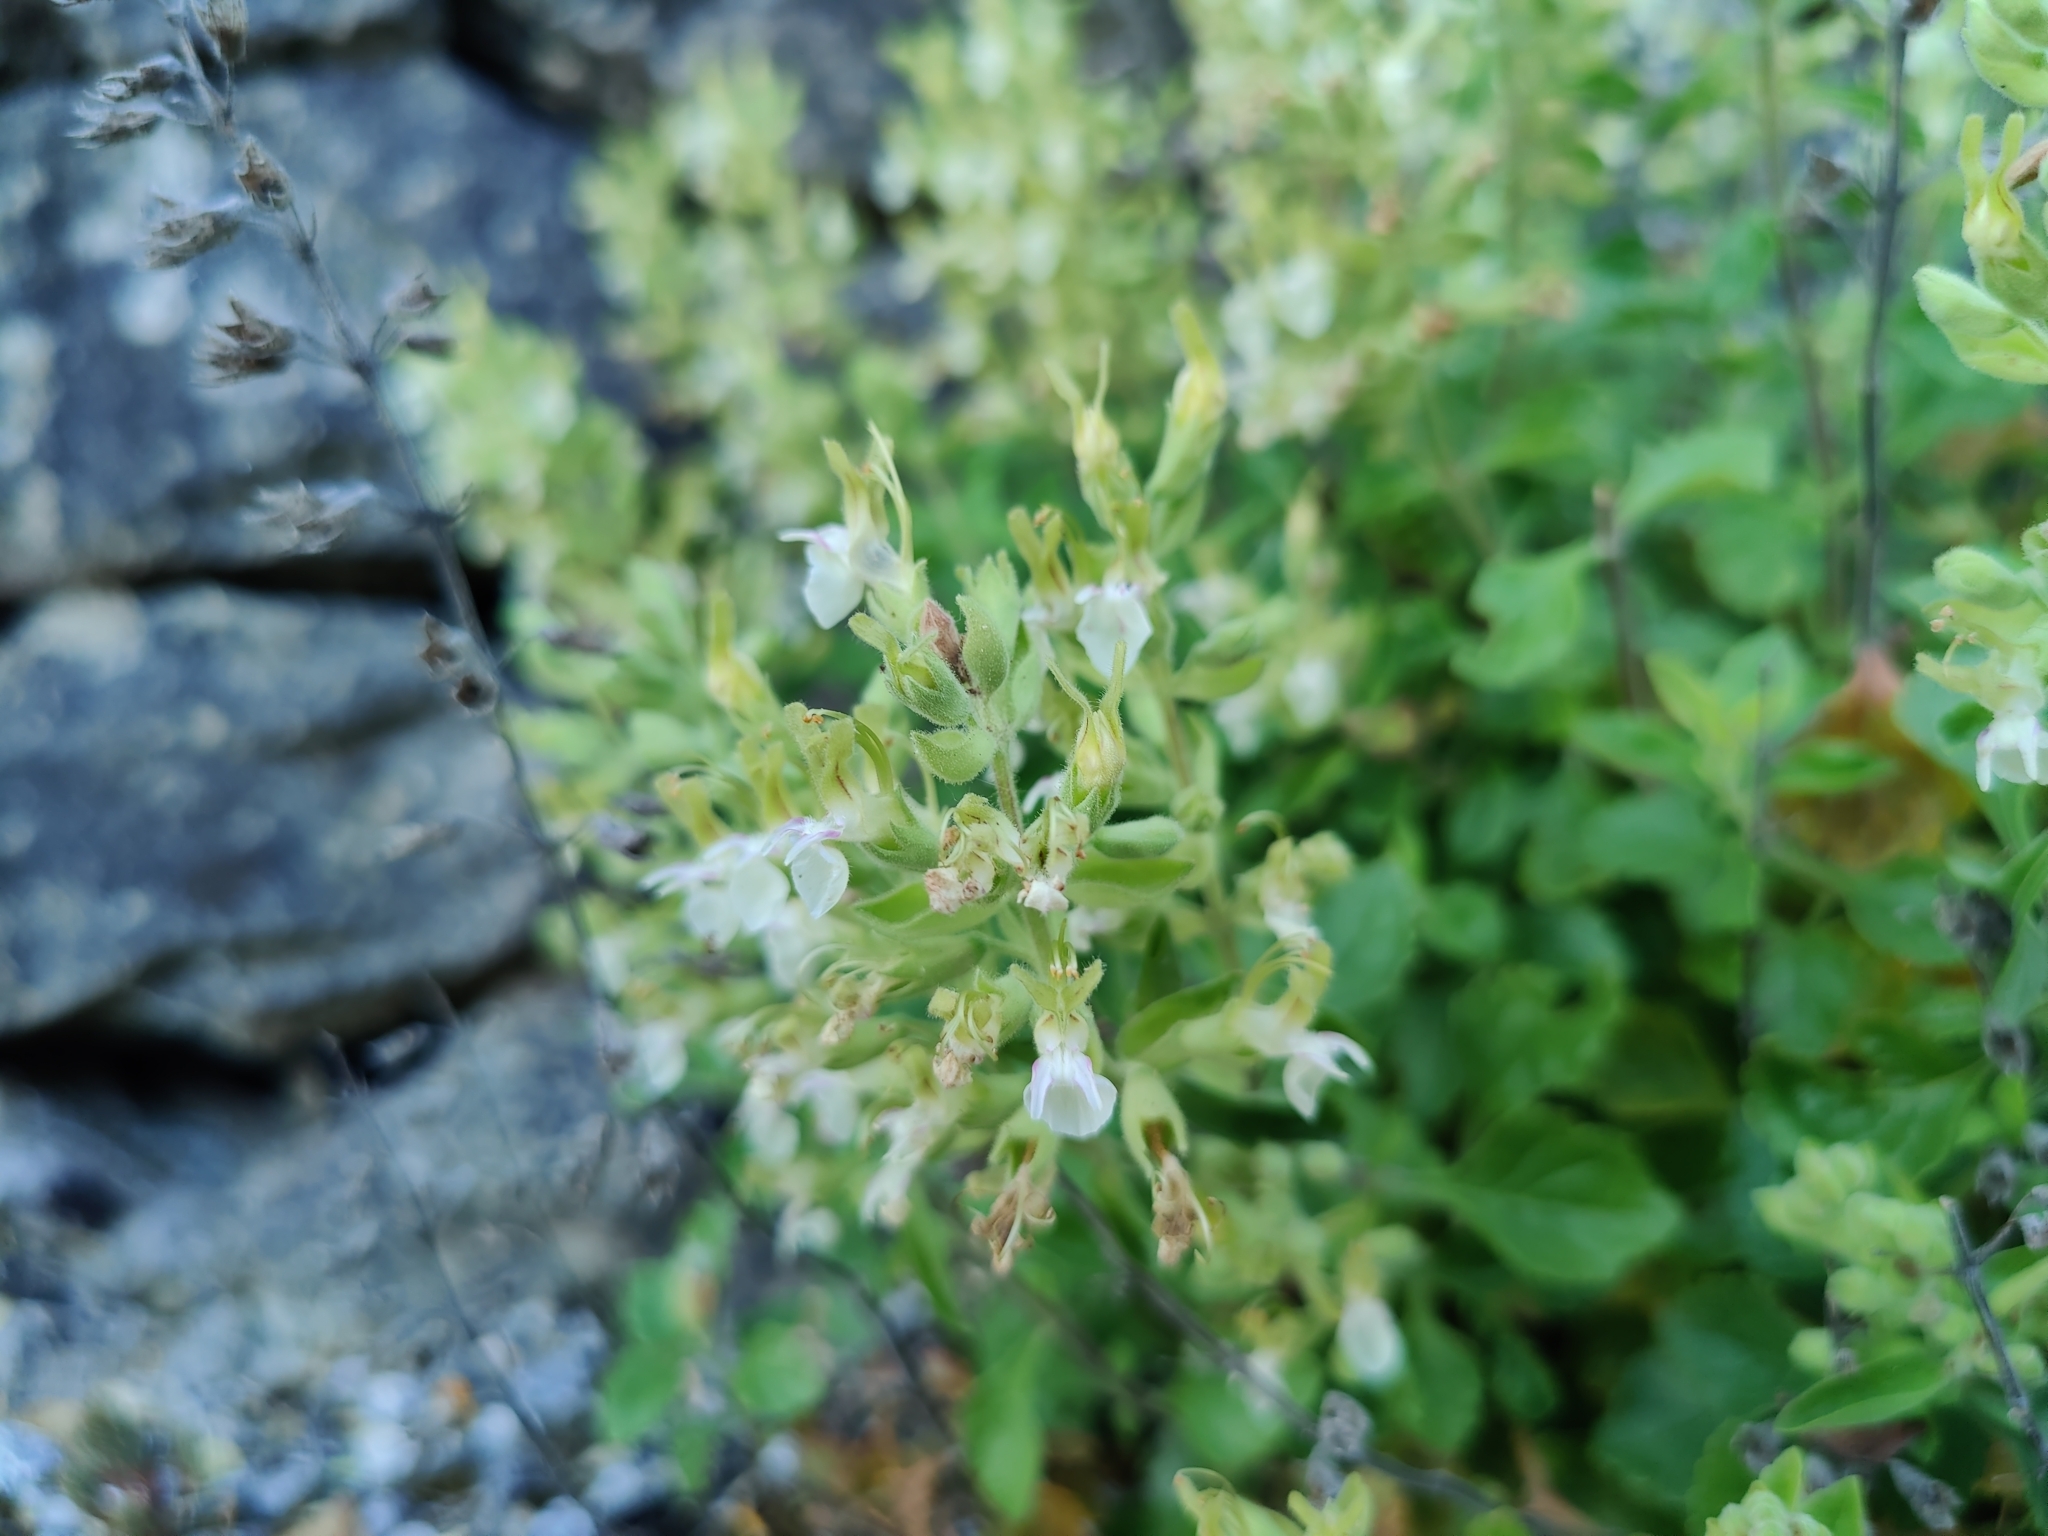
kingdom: Plantae
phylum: Tracheophyta
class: Magnoliopsida
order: Lamiales
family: Lamiaceae
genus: Teucrium
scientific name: Teucrium flavum
